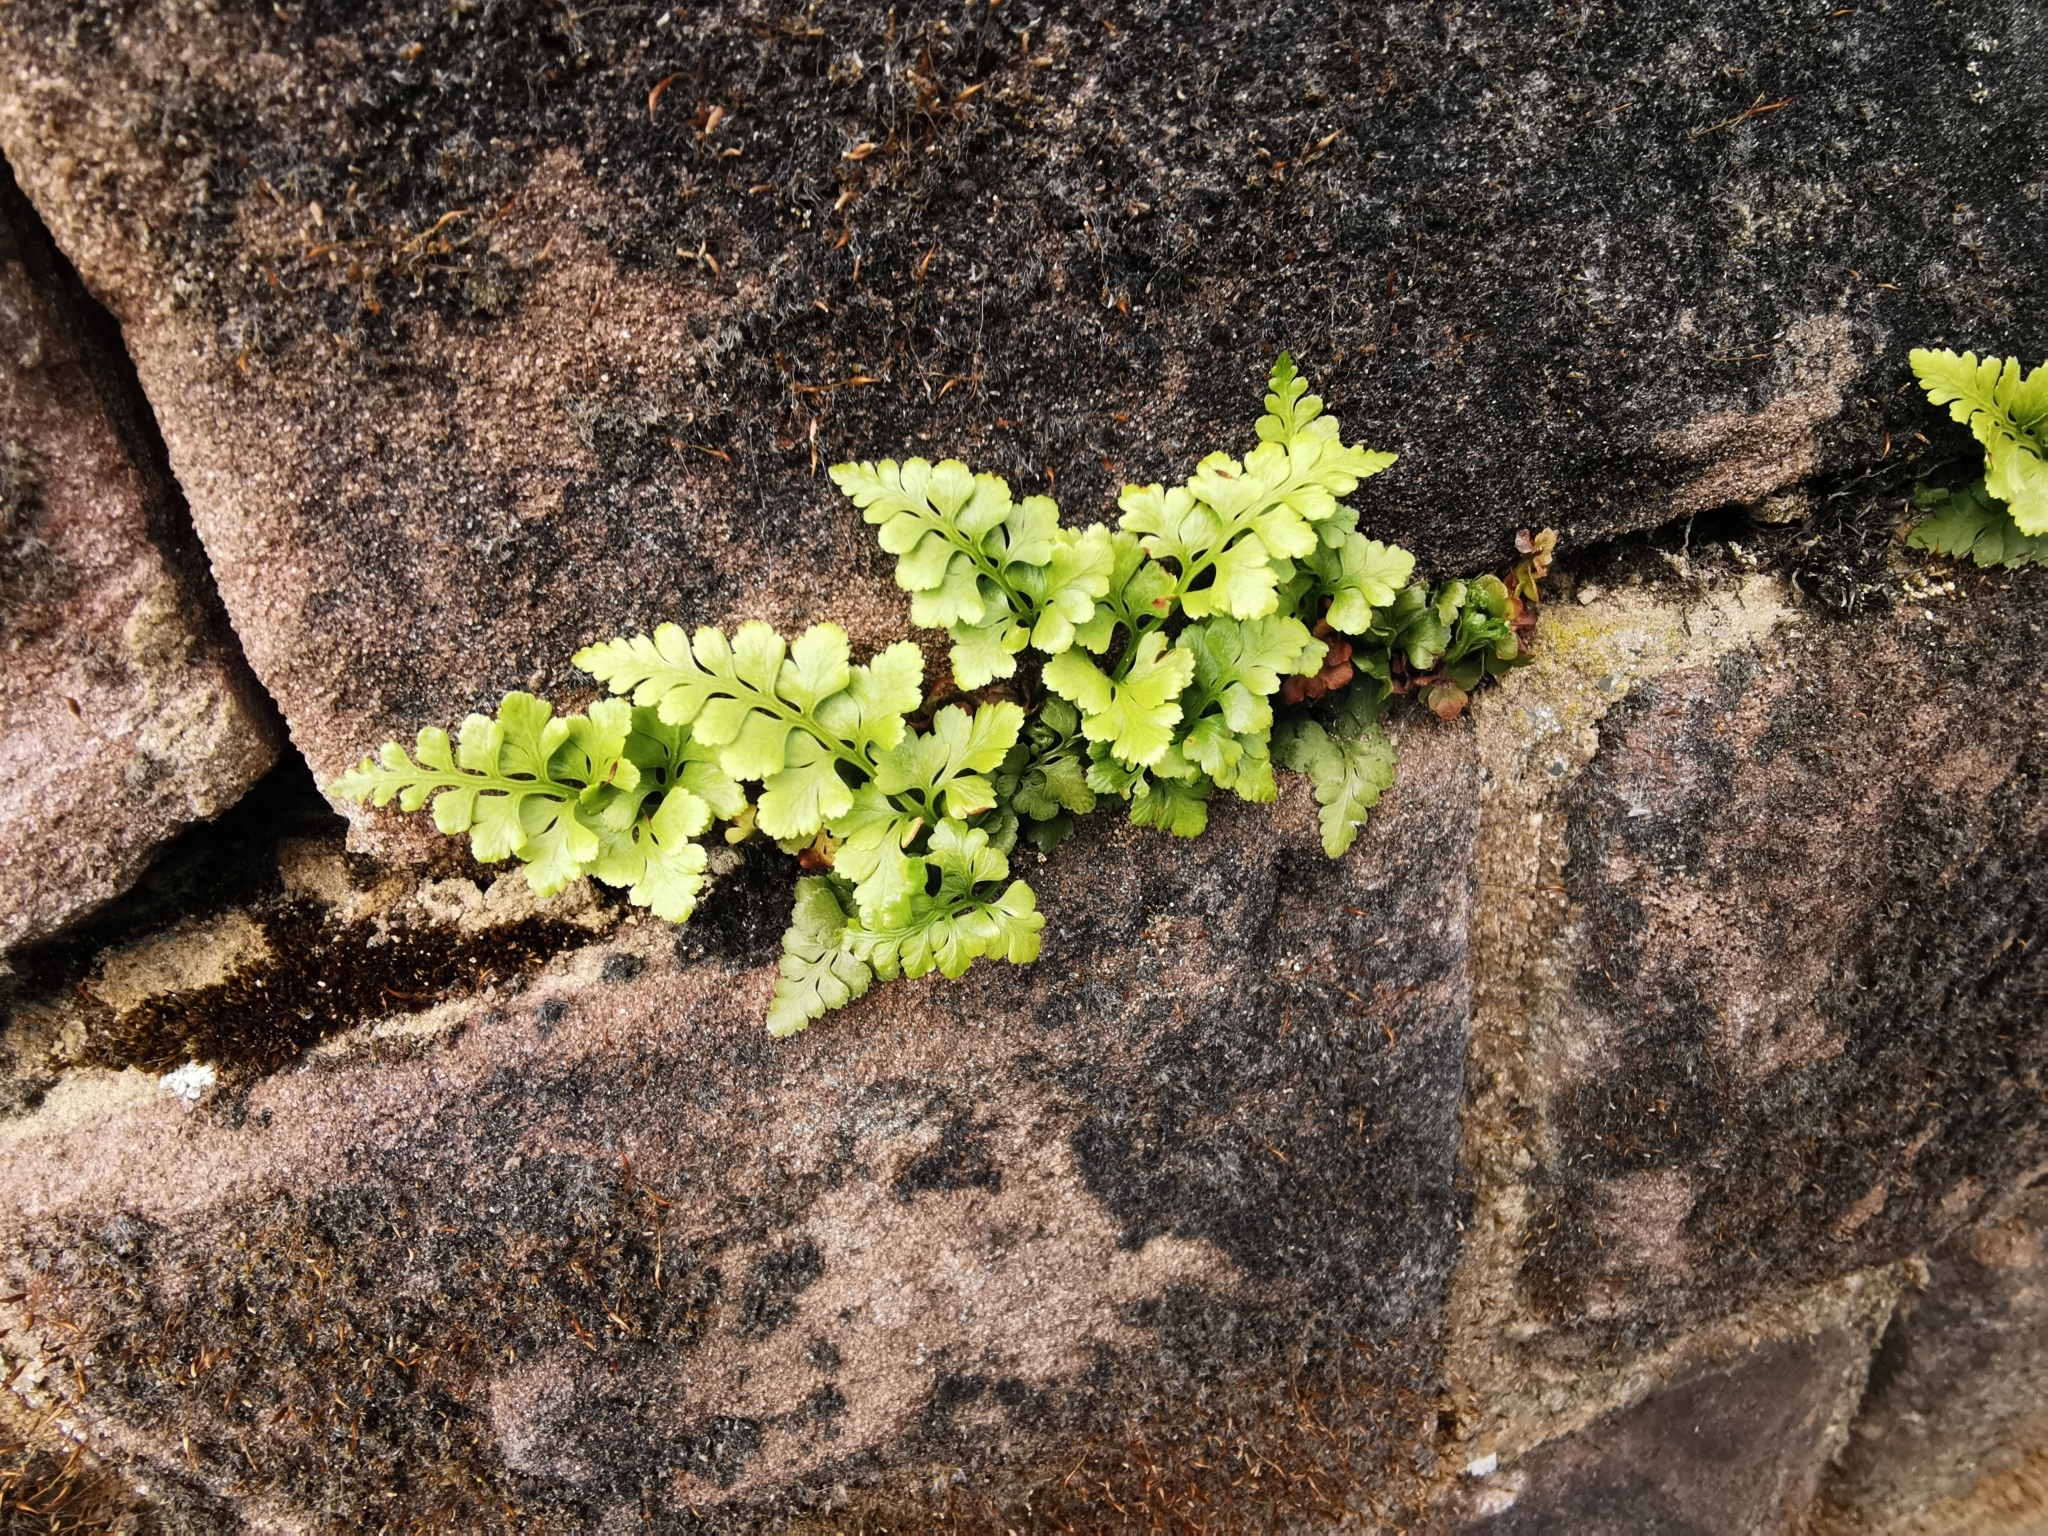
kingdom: Plantae
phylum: Tracheophyta
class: Polypodiopsida
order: Polypodiales
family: Aspleniaceae
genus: Asplenium
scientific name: Asplenium adiantum-nigrum
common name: Black spleenwort
